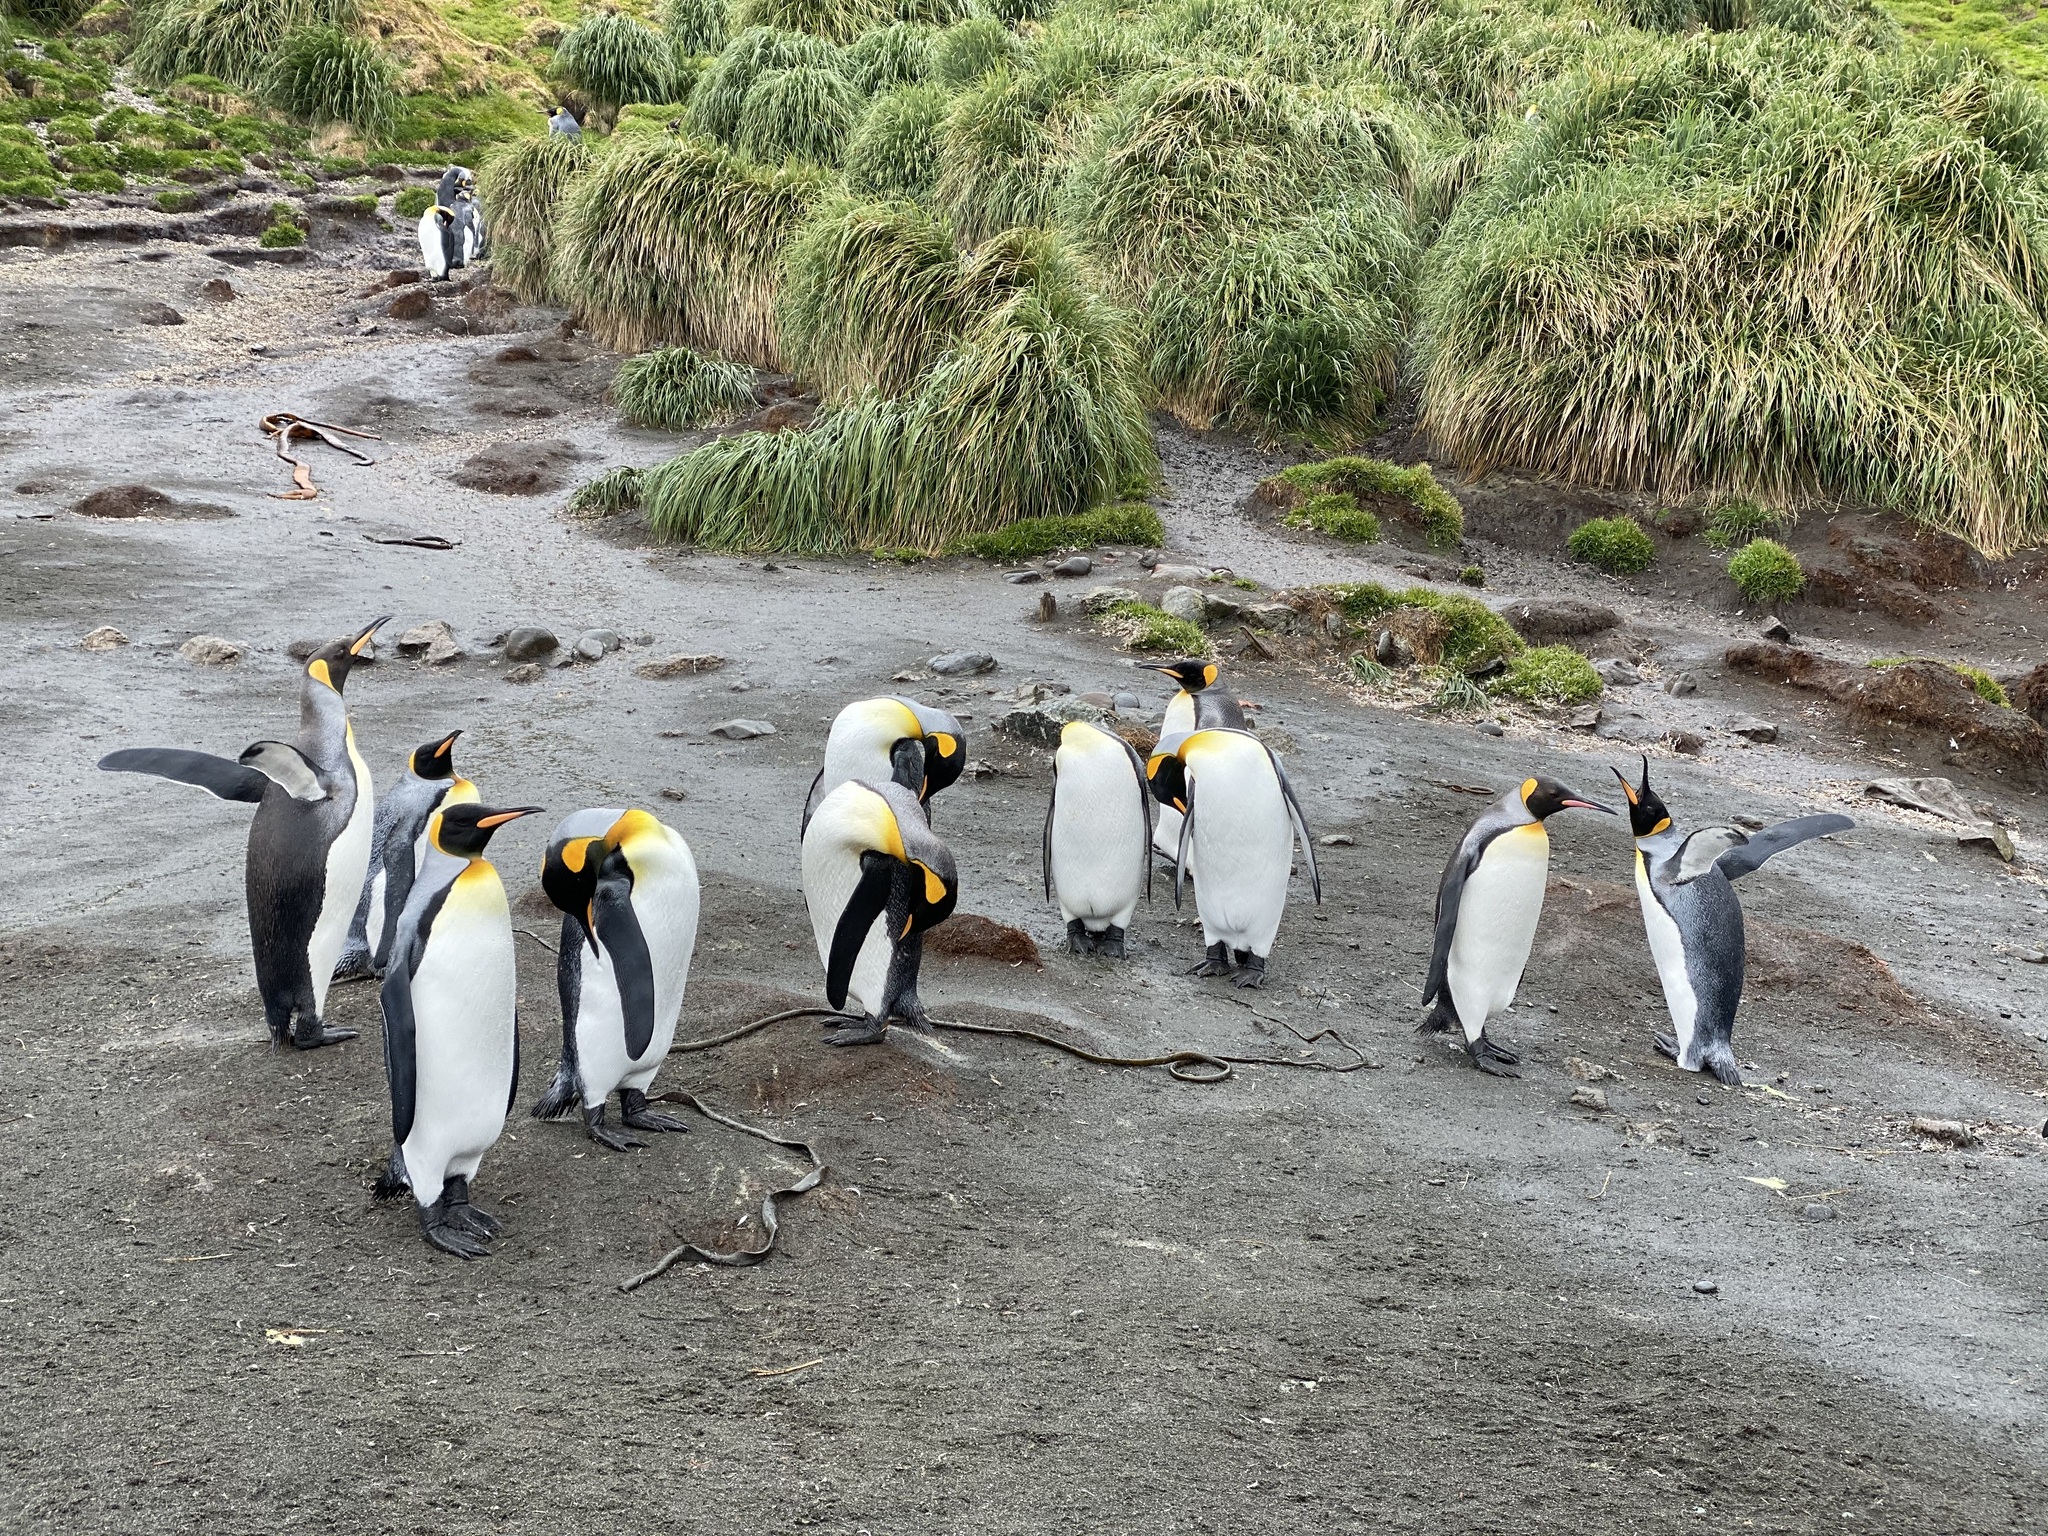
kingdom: Animalia
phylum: Chordata
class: Aves
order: Sphenisciformes
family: Spheniscidae
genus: Aptenodytes
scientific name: Aptenodytes patagonicus
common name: King penguin
